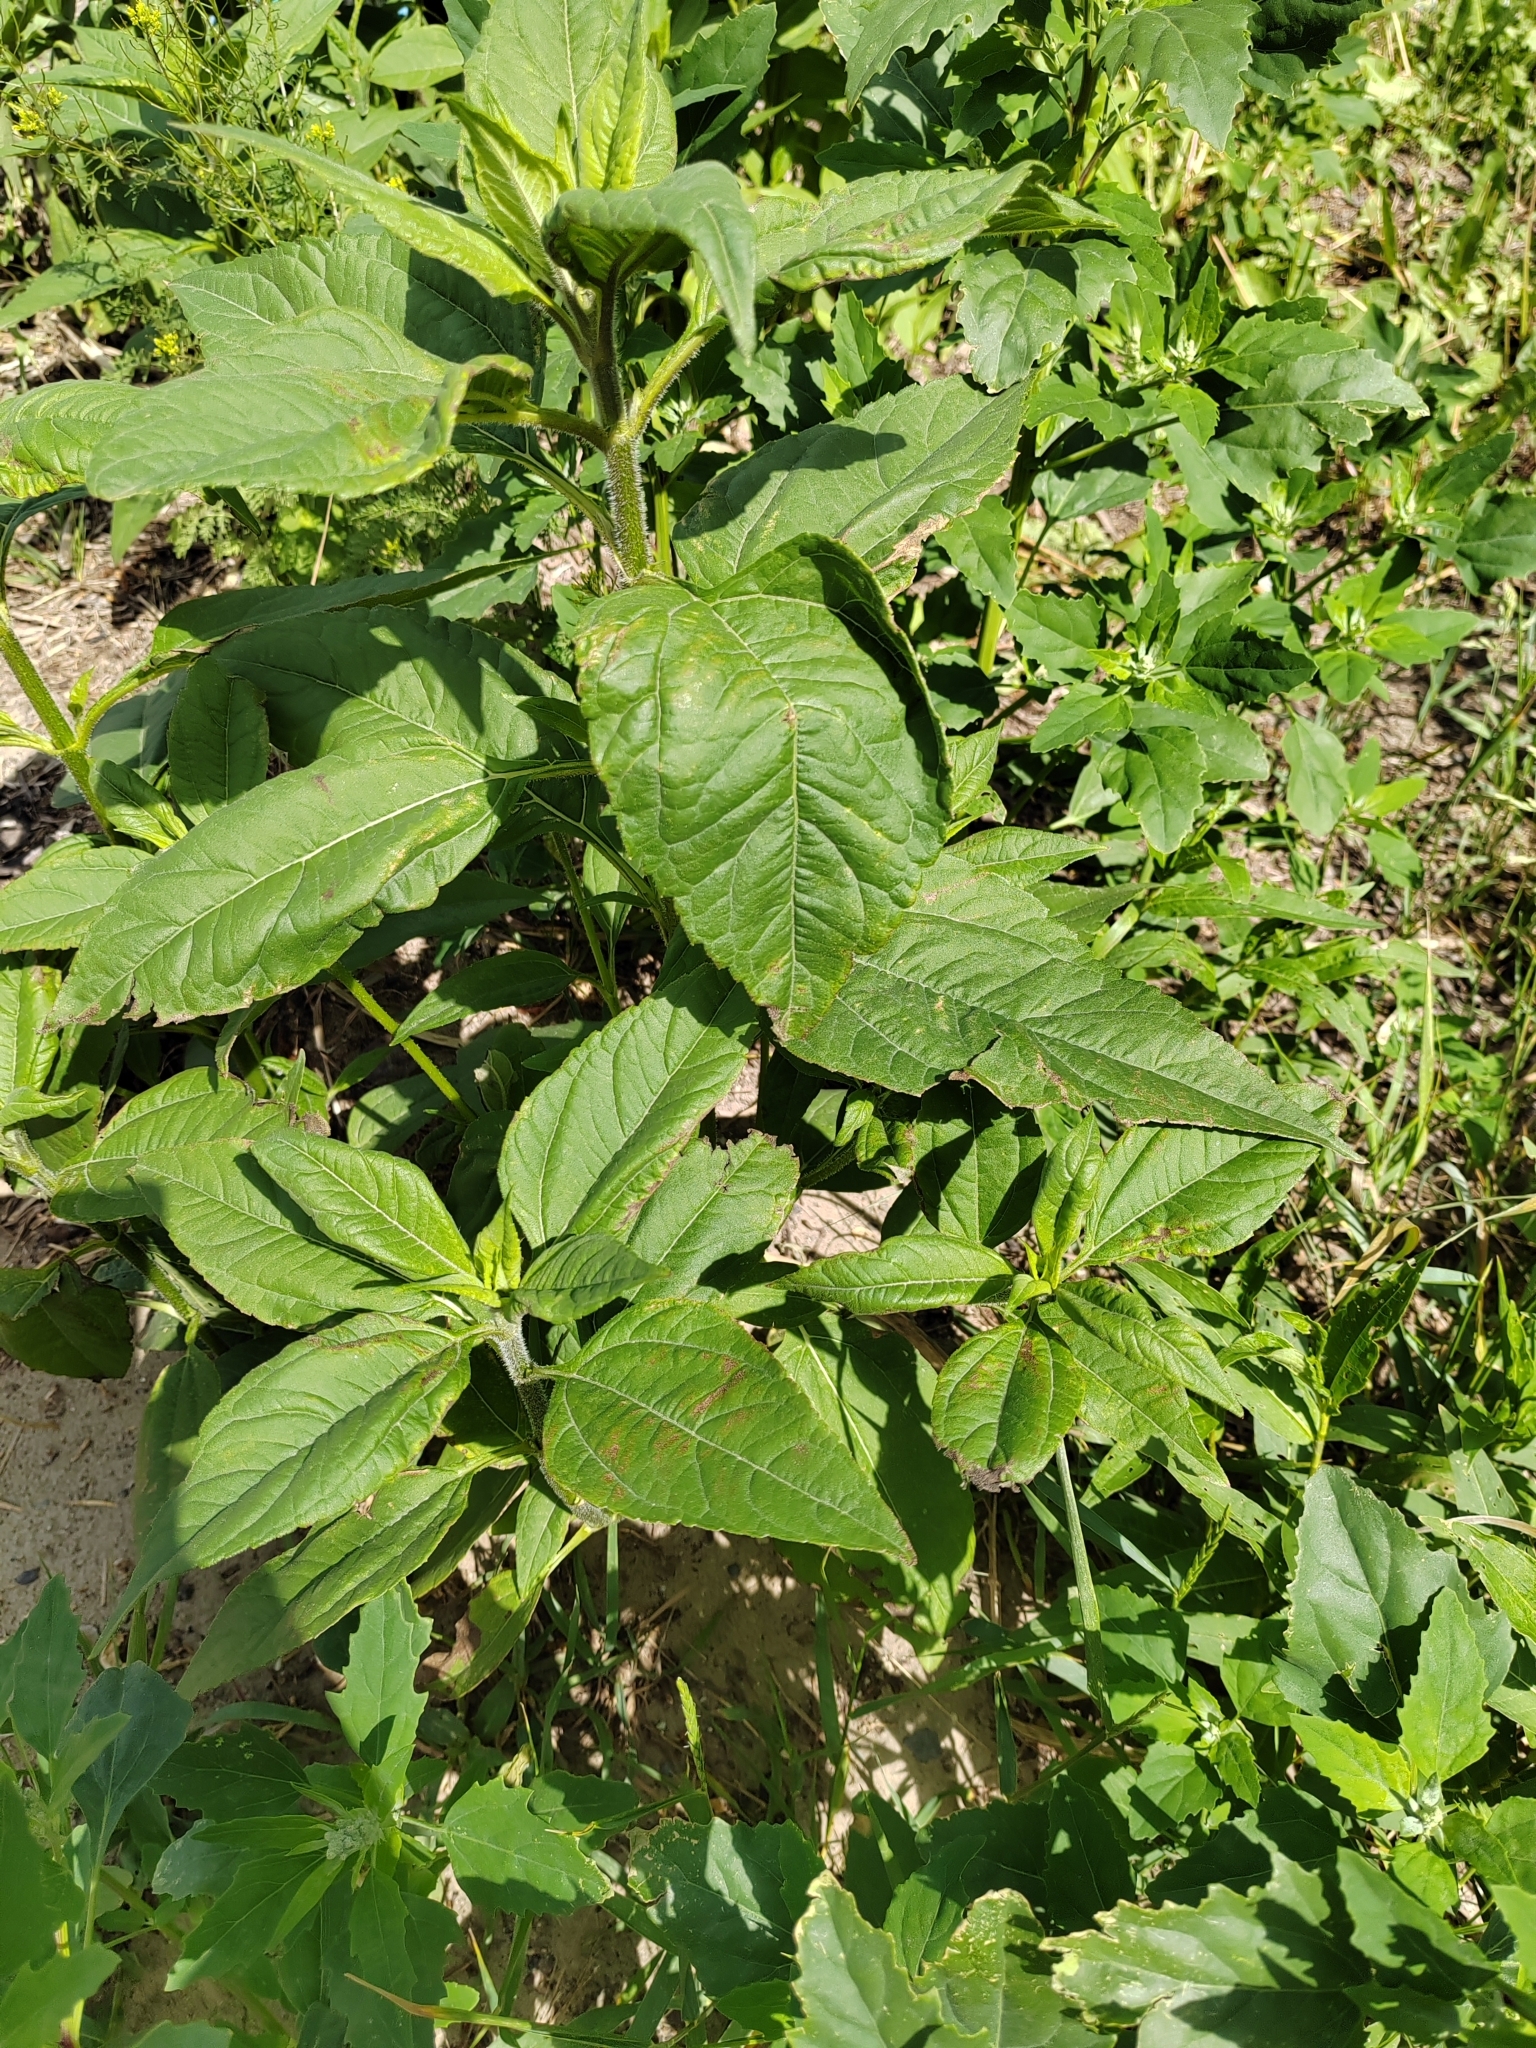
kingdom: Plantae
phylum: Tracheophyta
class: Magnoliopsida
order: Asterales
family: Asteraceae
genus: Helianthus
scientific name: Helianthus tuberosus
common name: Jerusalem artichoke
